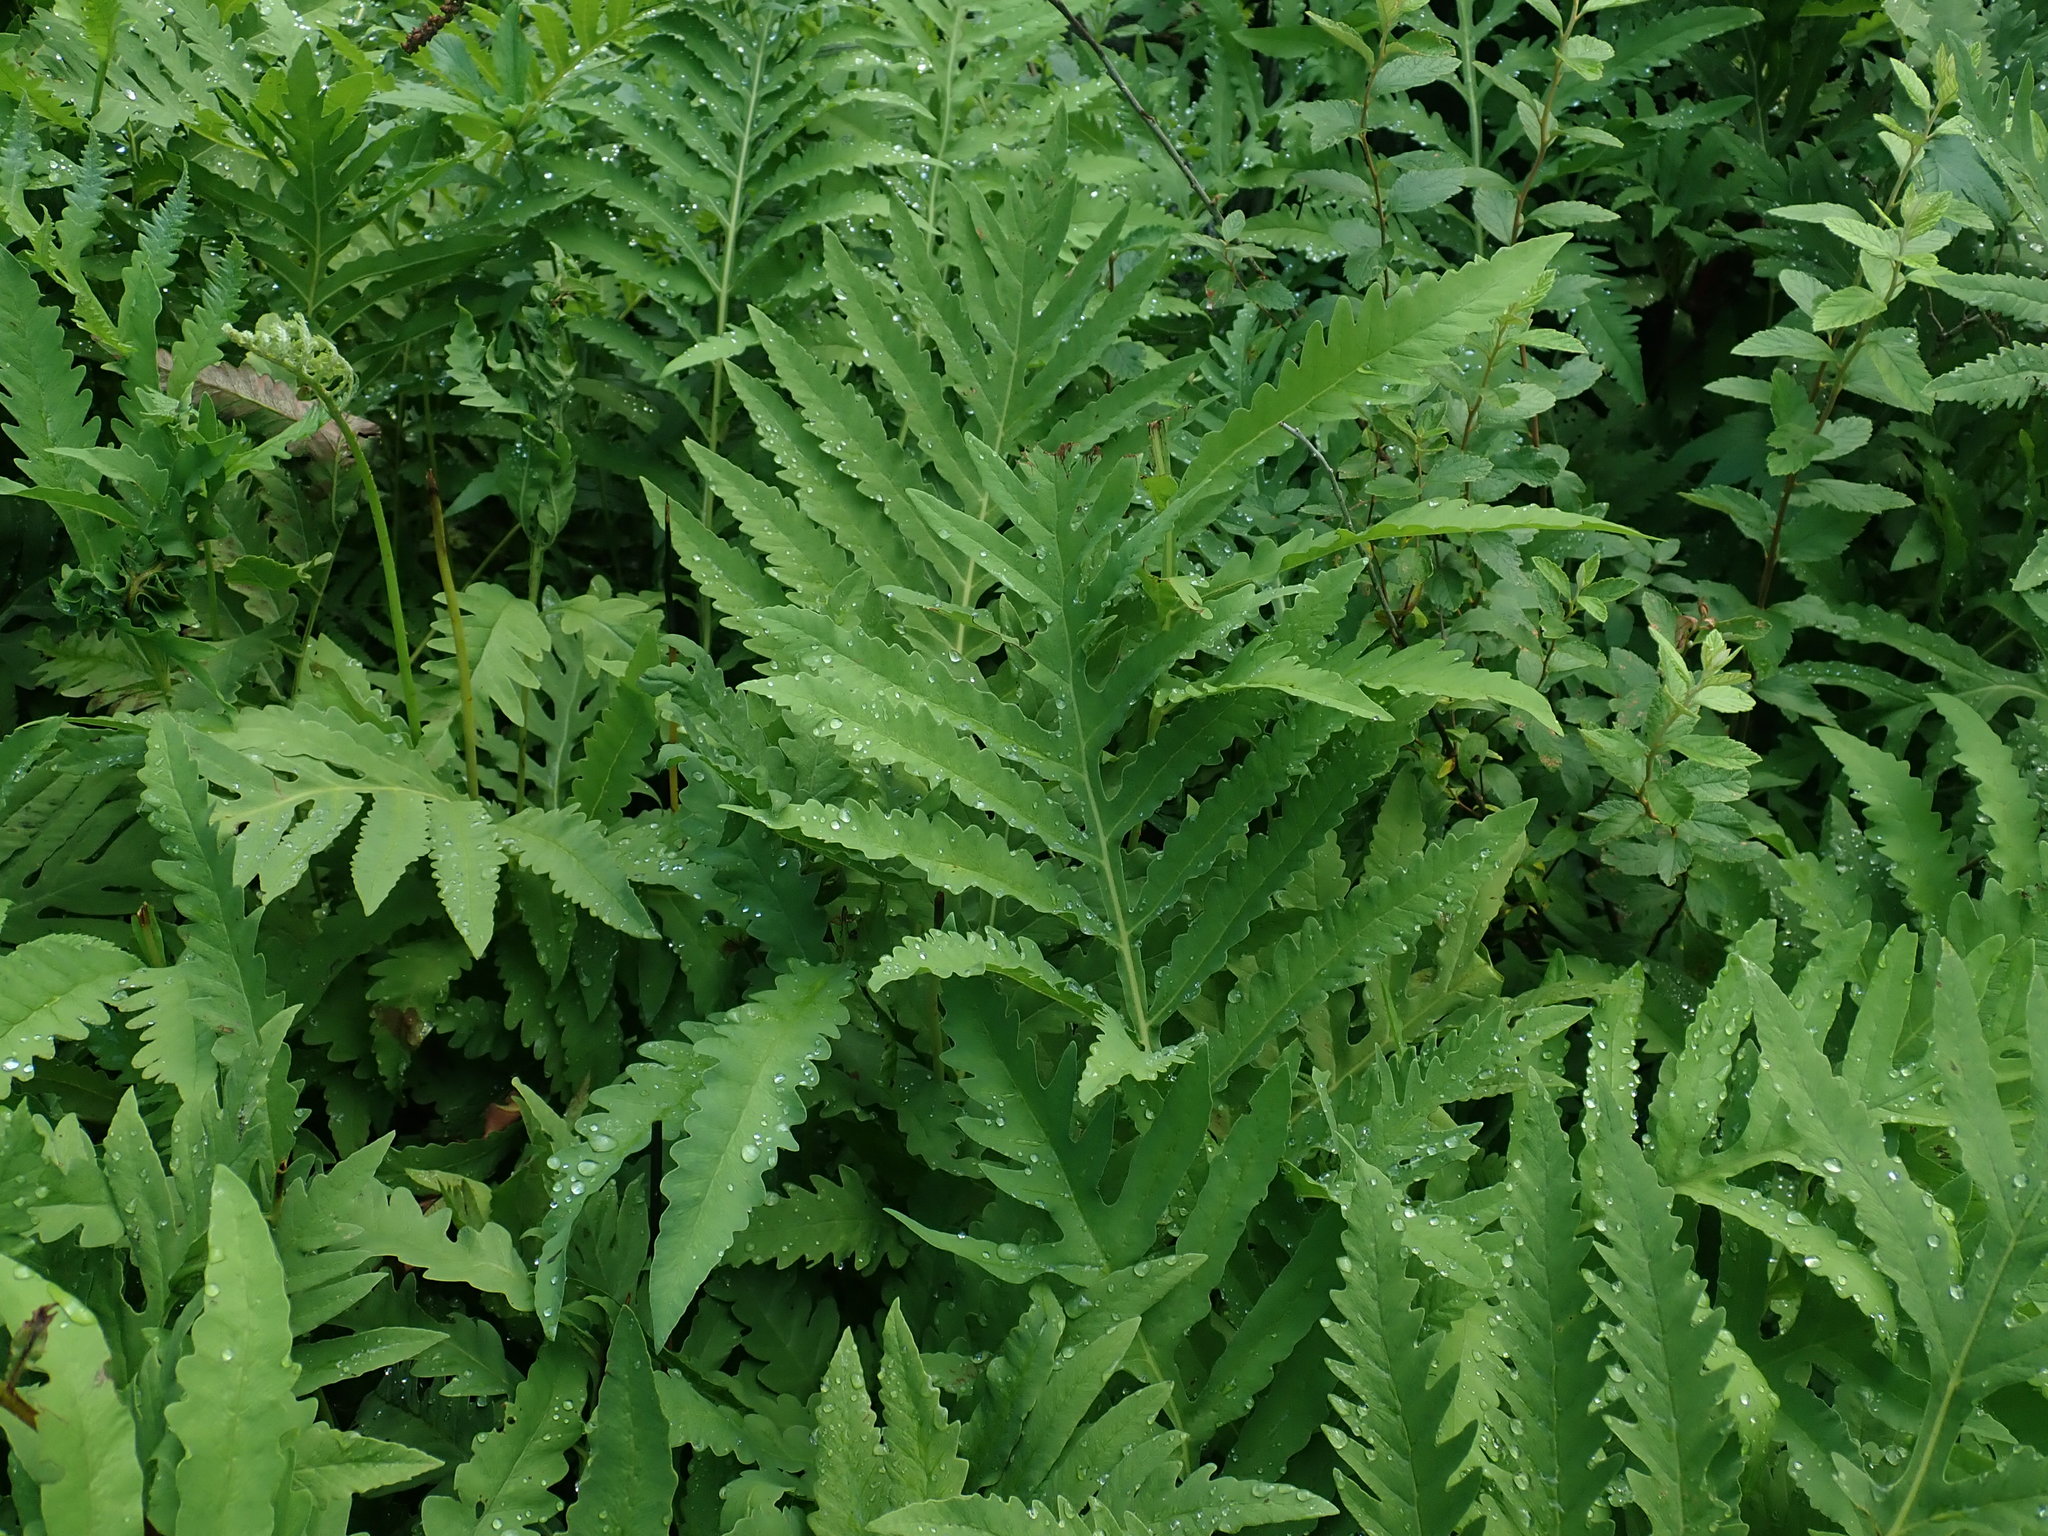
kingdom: Plantae
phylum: Tracheophyta
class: Polypodiopsida
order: Polypodiales
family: Onocleaceae
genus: Onoclea
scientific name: Onoclea sensibilis
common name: Sensitive fern
